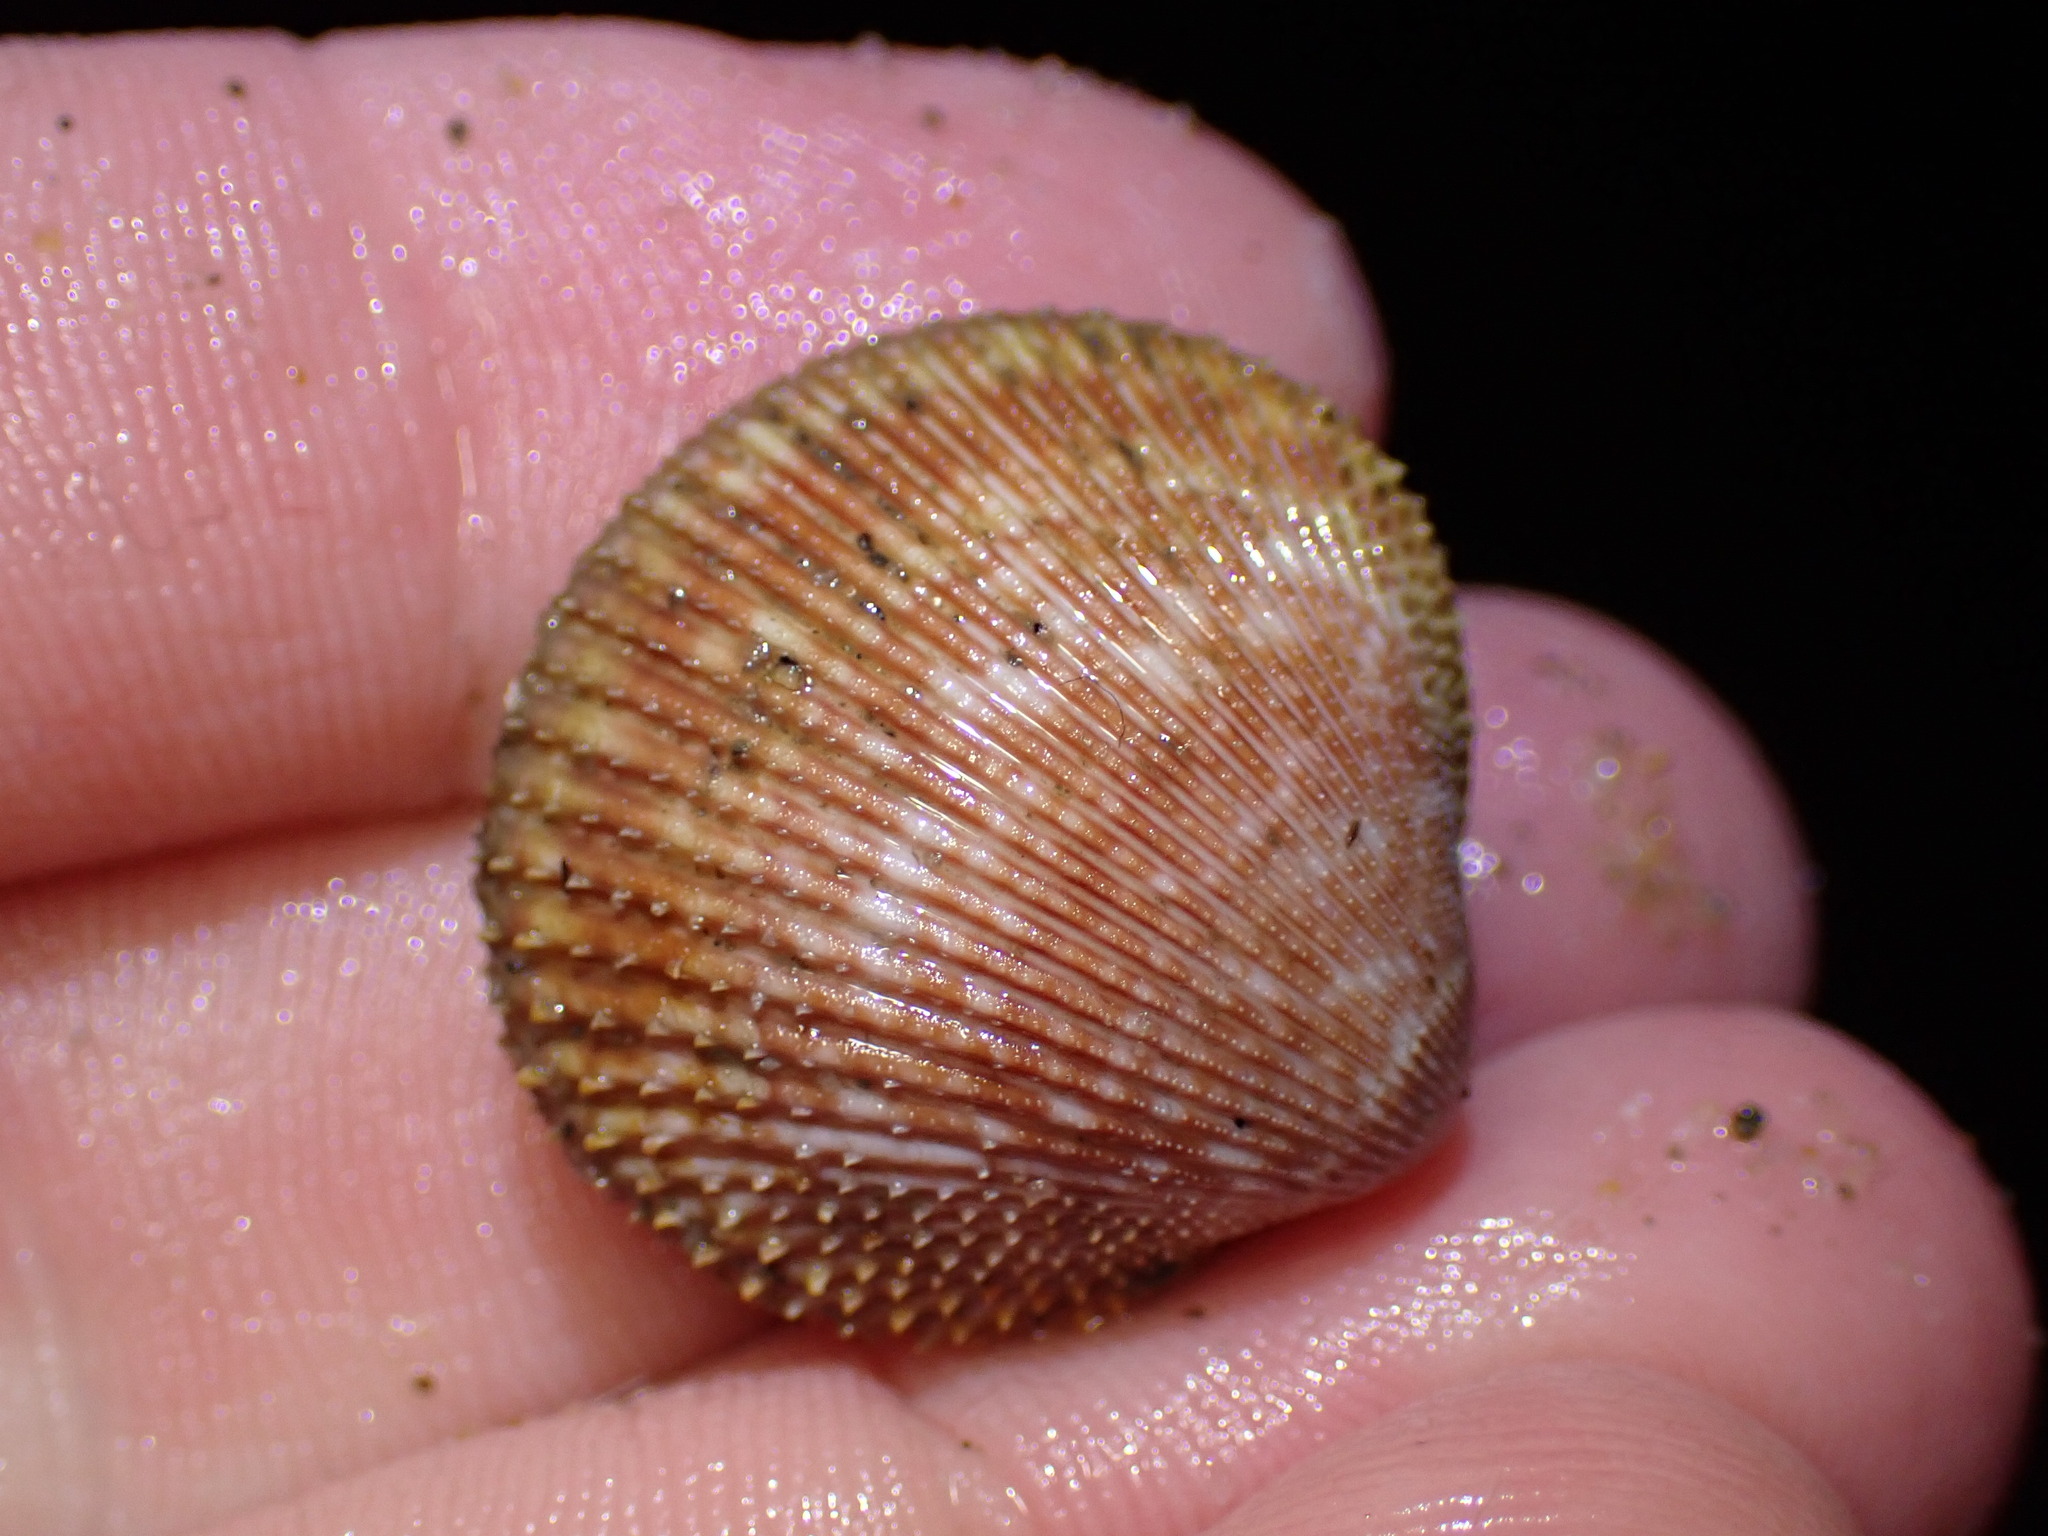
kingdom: Animalia
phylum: Mollusca
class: Bivalvia
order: Cardiida
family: Cardiidae
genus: Dallocardia
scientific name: Dallocardia quadragenaria
